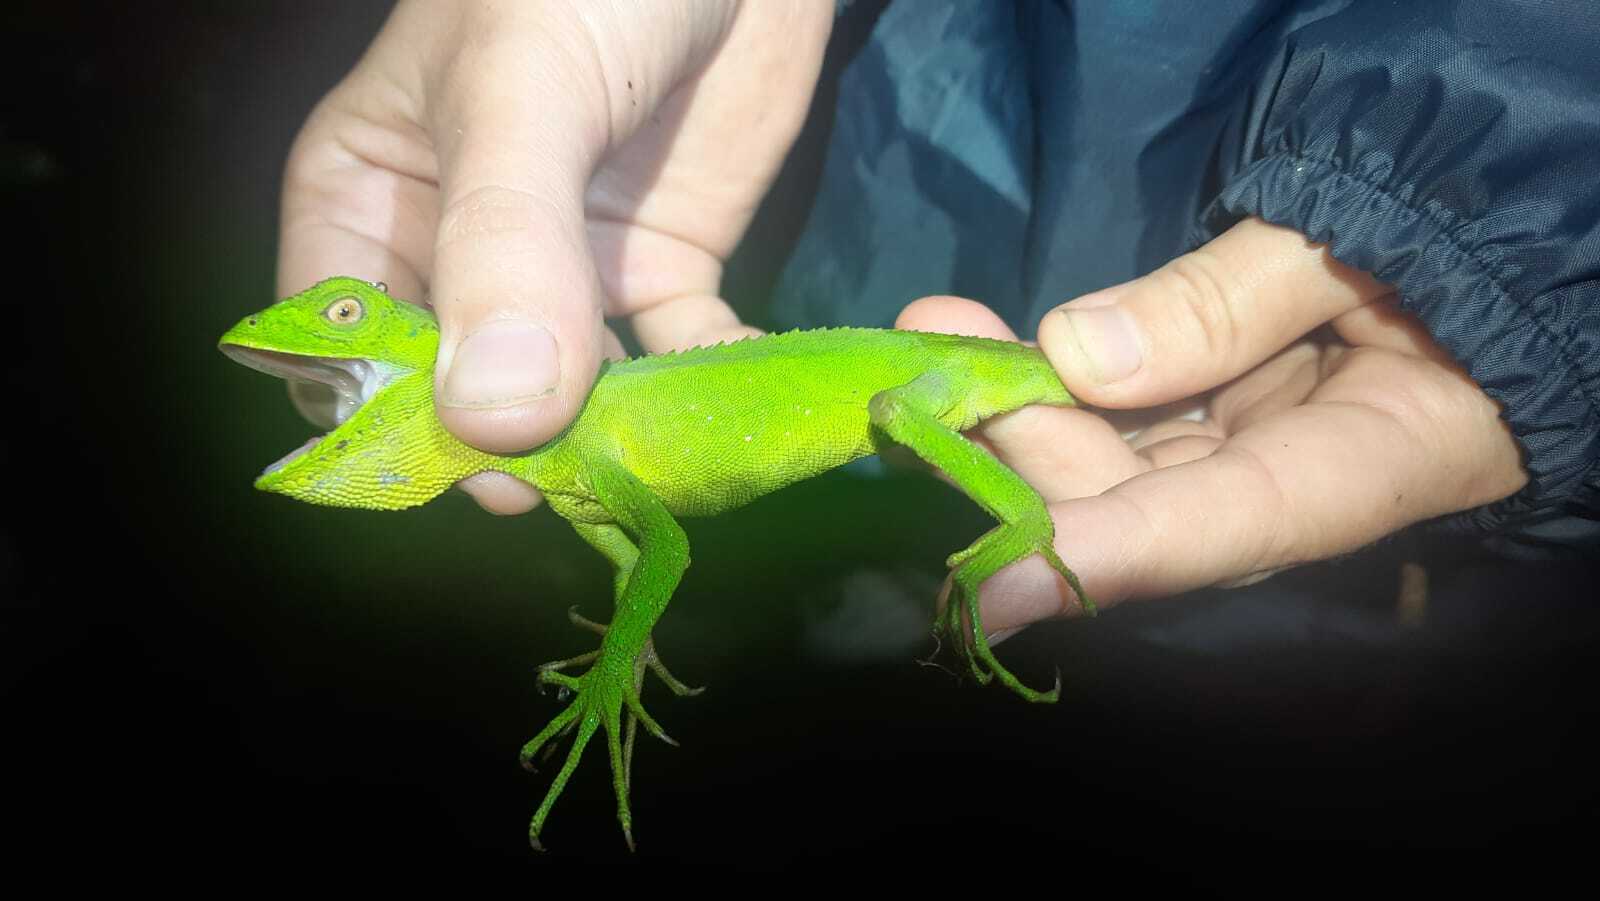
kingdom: Animalia
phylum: Chordata
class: Squamata
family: Leiosauridae
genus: Enyalius
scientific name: Enyalius iheringii
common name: Ihering's fathead anole
